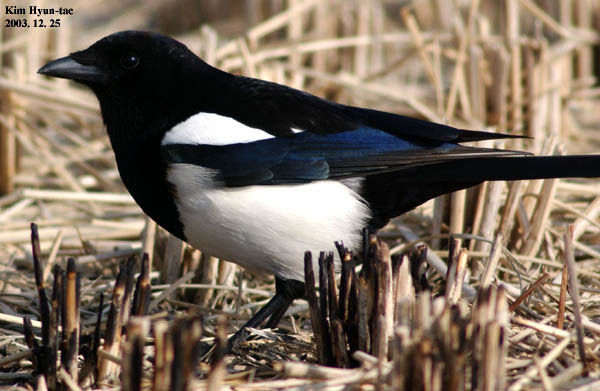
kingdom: Animalia
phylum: Chordata
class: Aves
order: Passeriformes
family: Corvidae
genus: Pica
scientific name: Pica serica
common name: Oriental magpie
